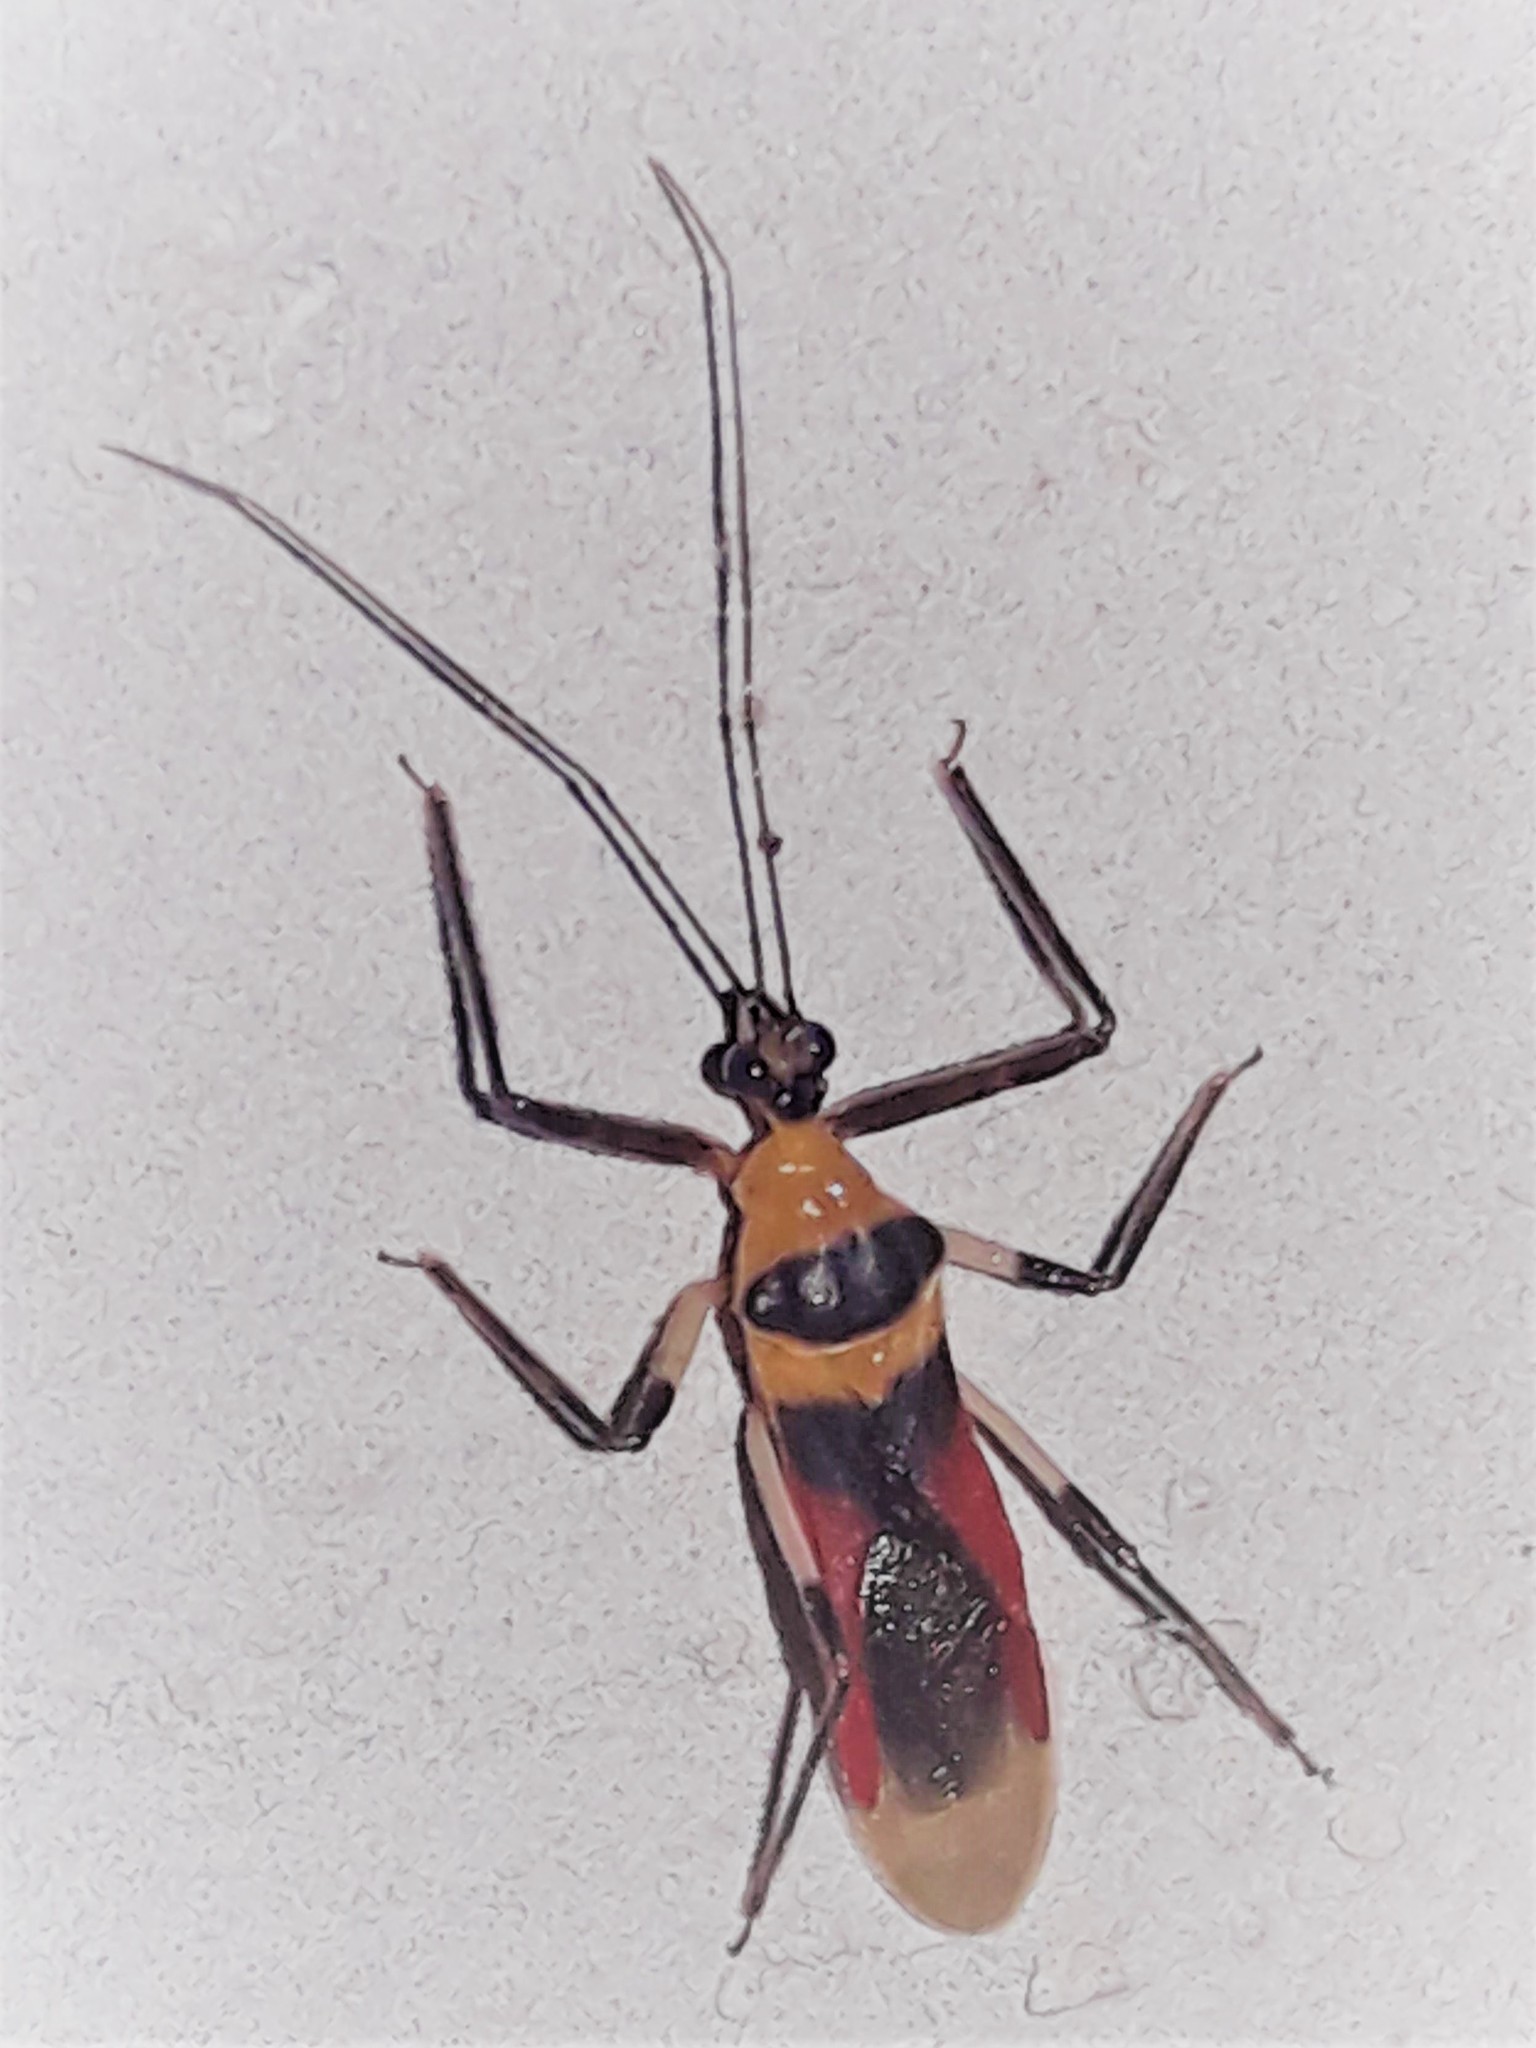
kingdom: Animalia
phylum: Arthropoda
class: Insecta
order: Hemiptera
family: Reduviidae
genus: Castolus
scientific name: Castolus tricolor
